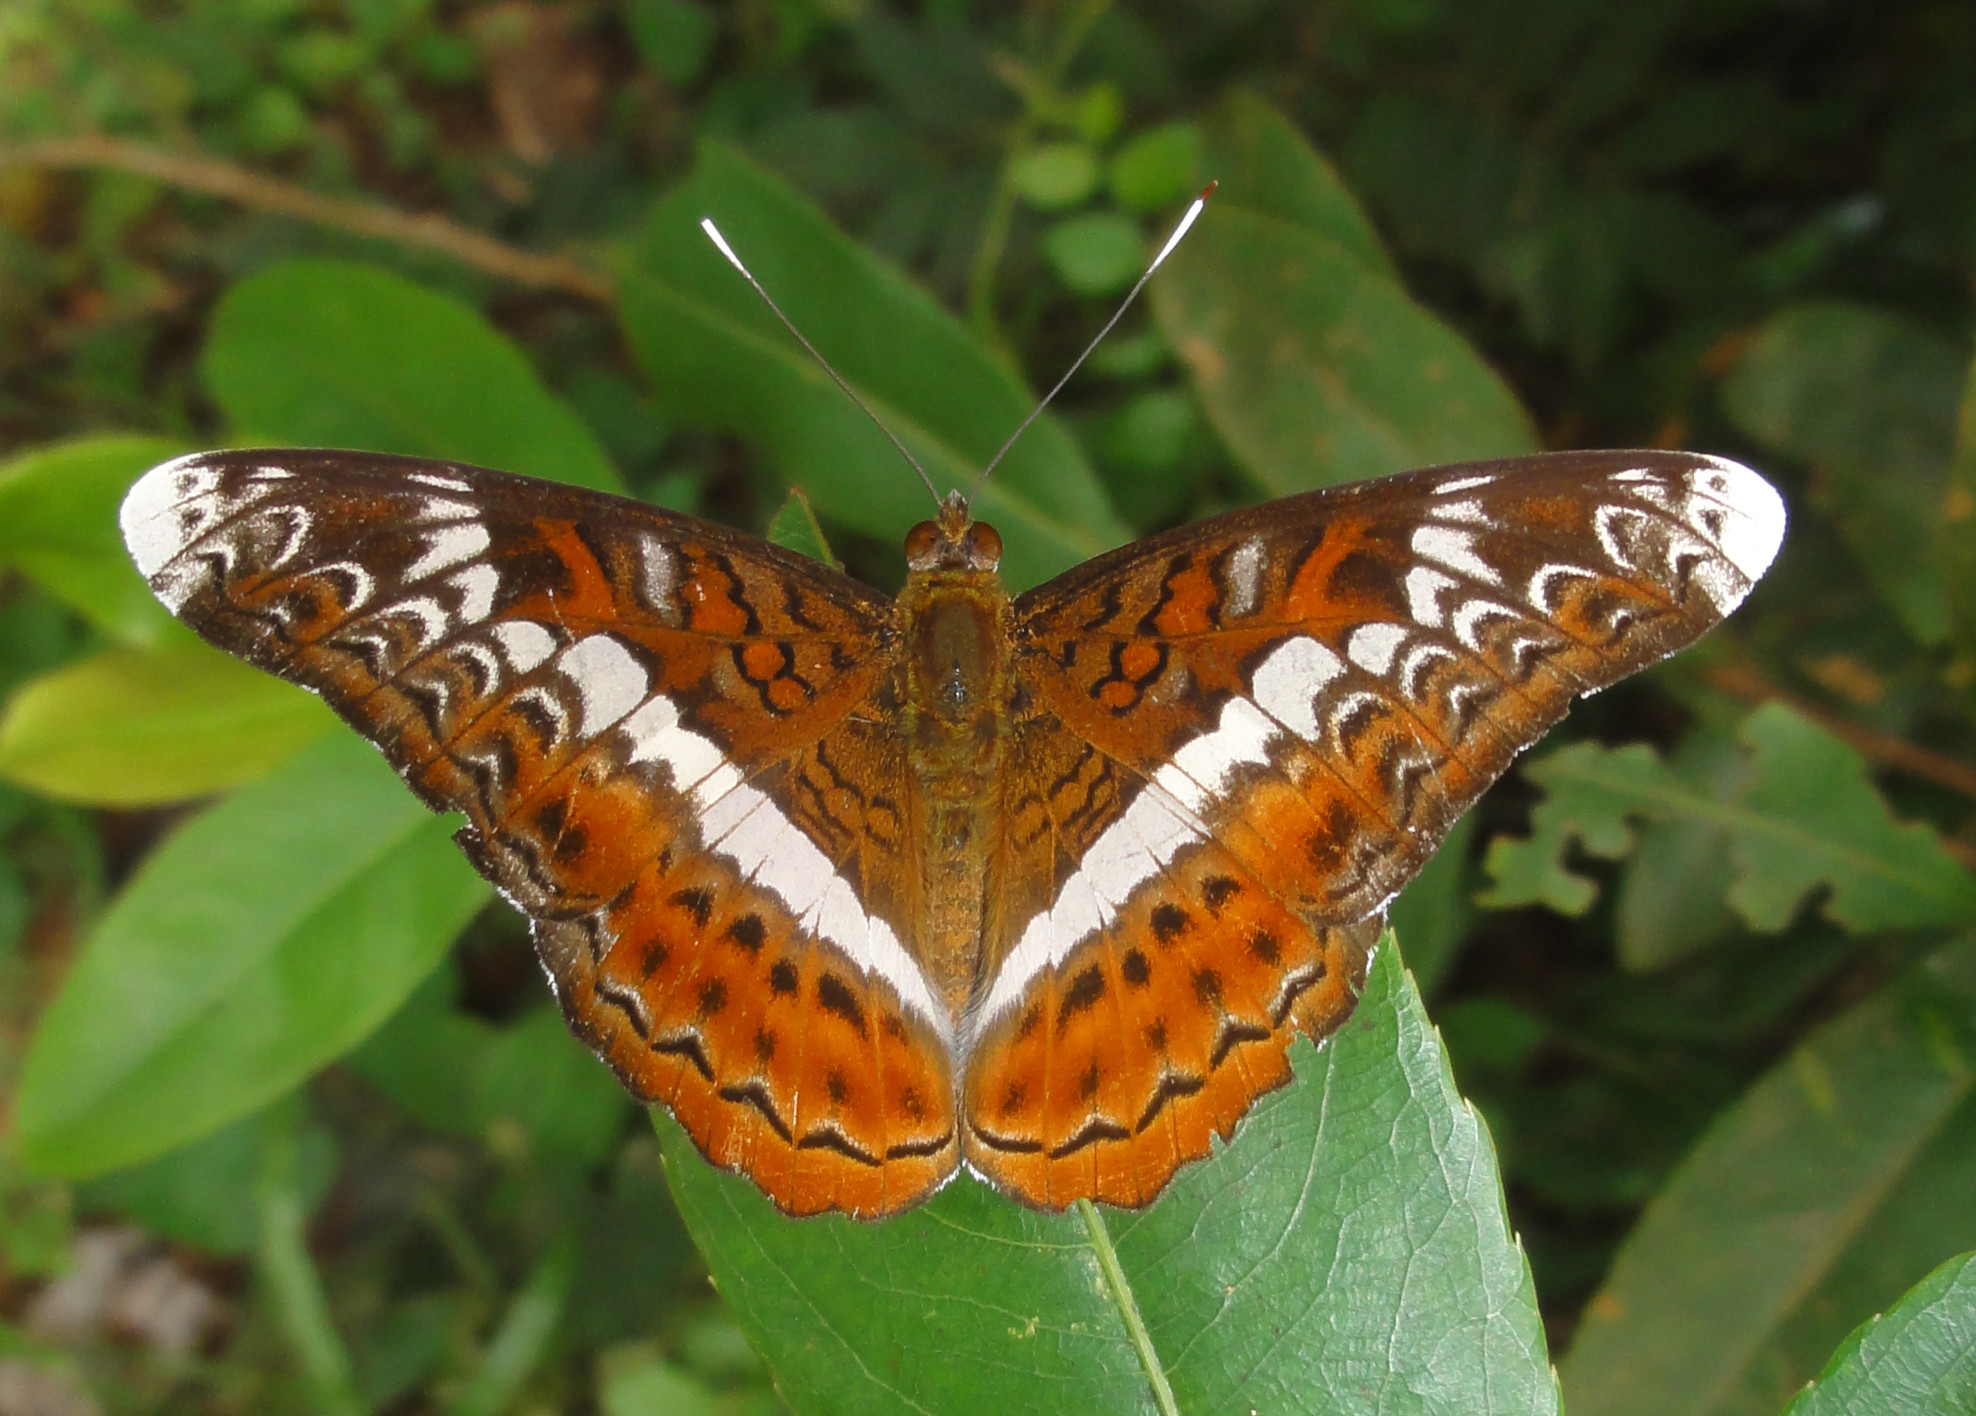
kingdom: Animalia
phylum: Arthropoda
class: Insecta
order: Lepidoptera
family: Nymphalidae
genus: Lebadea
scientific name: Lebadea martha
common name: Knight
